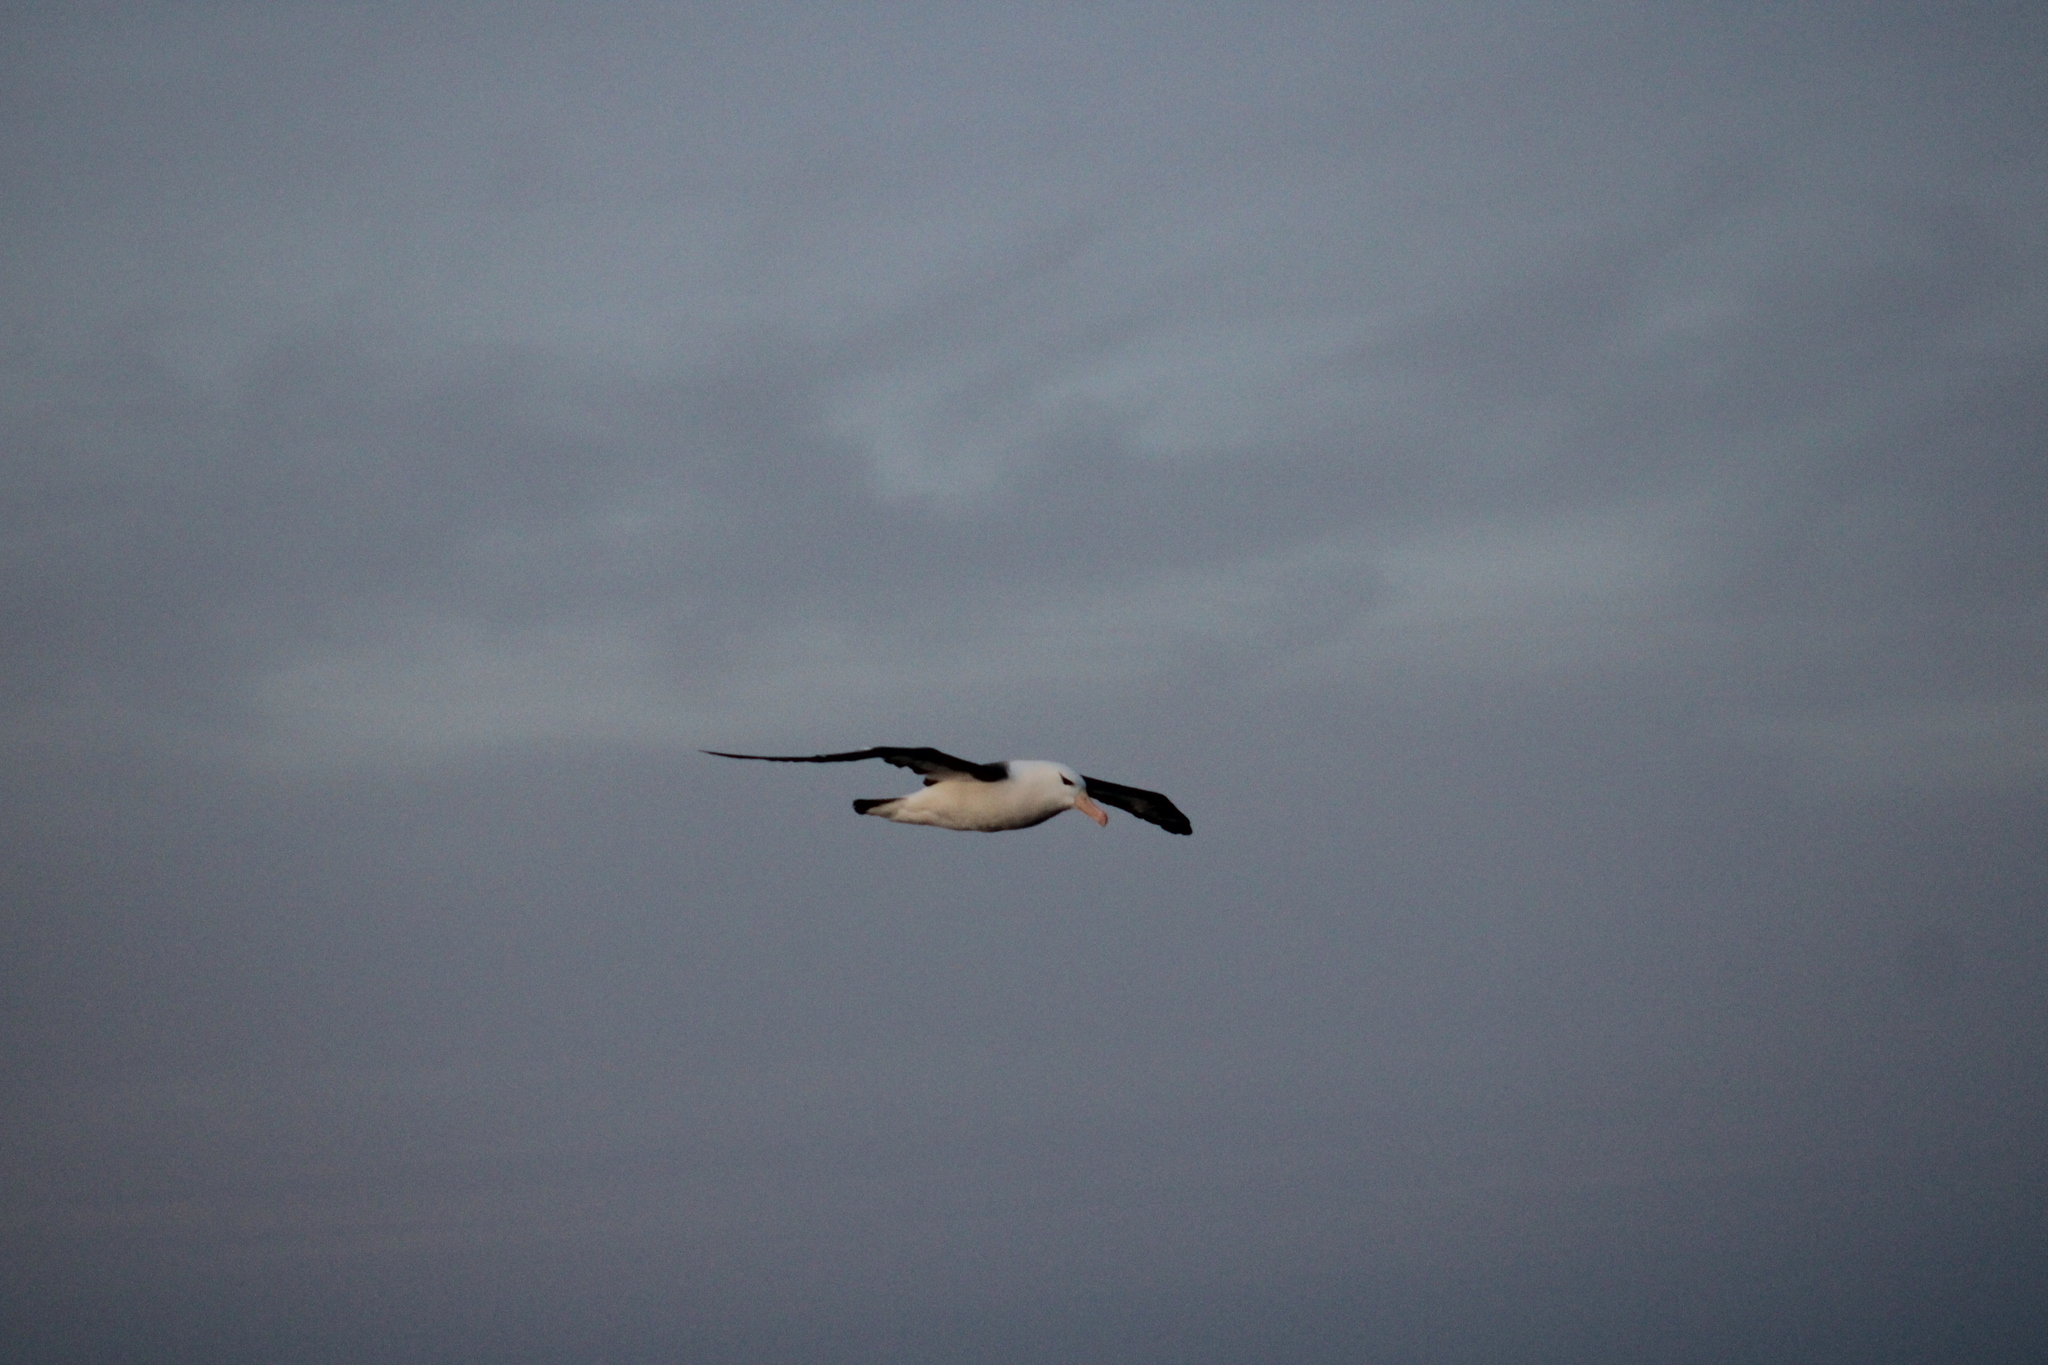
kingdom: Animalia
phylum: Chordata
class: Aves
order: Procellariiformes
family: Diomedeidae
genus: Thalassarche
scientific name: Thalassarche melanophris
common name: Black-browed albatross
